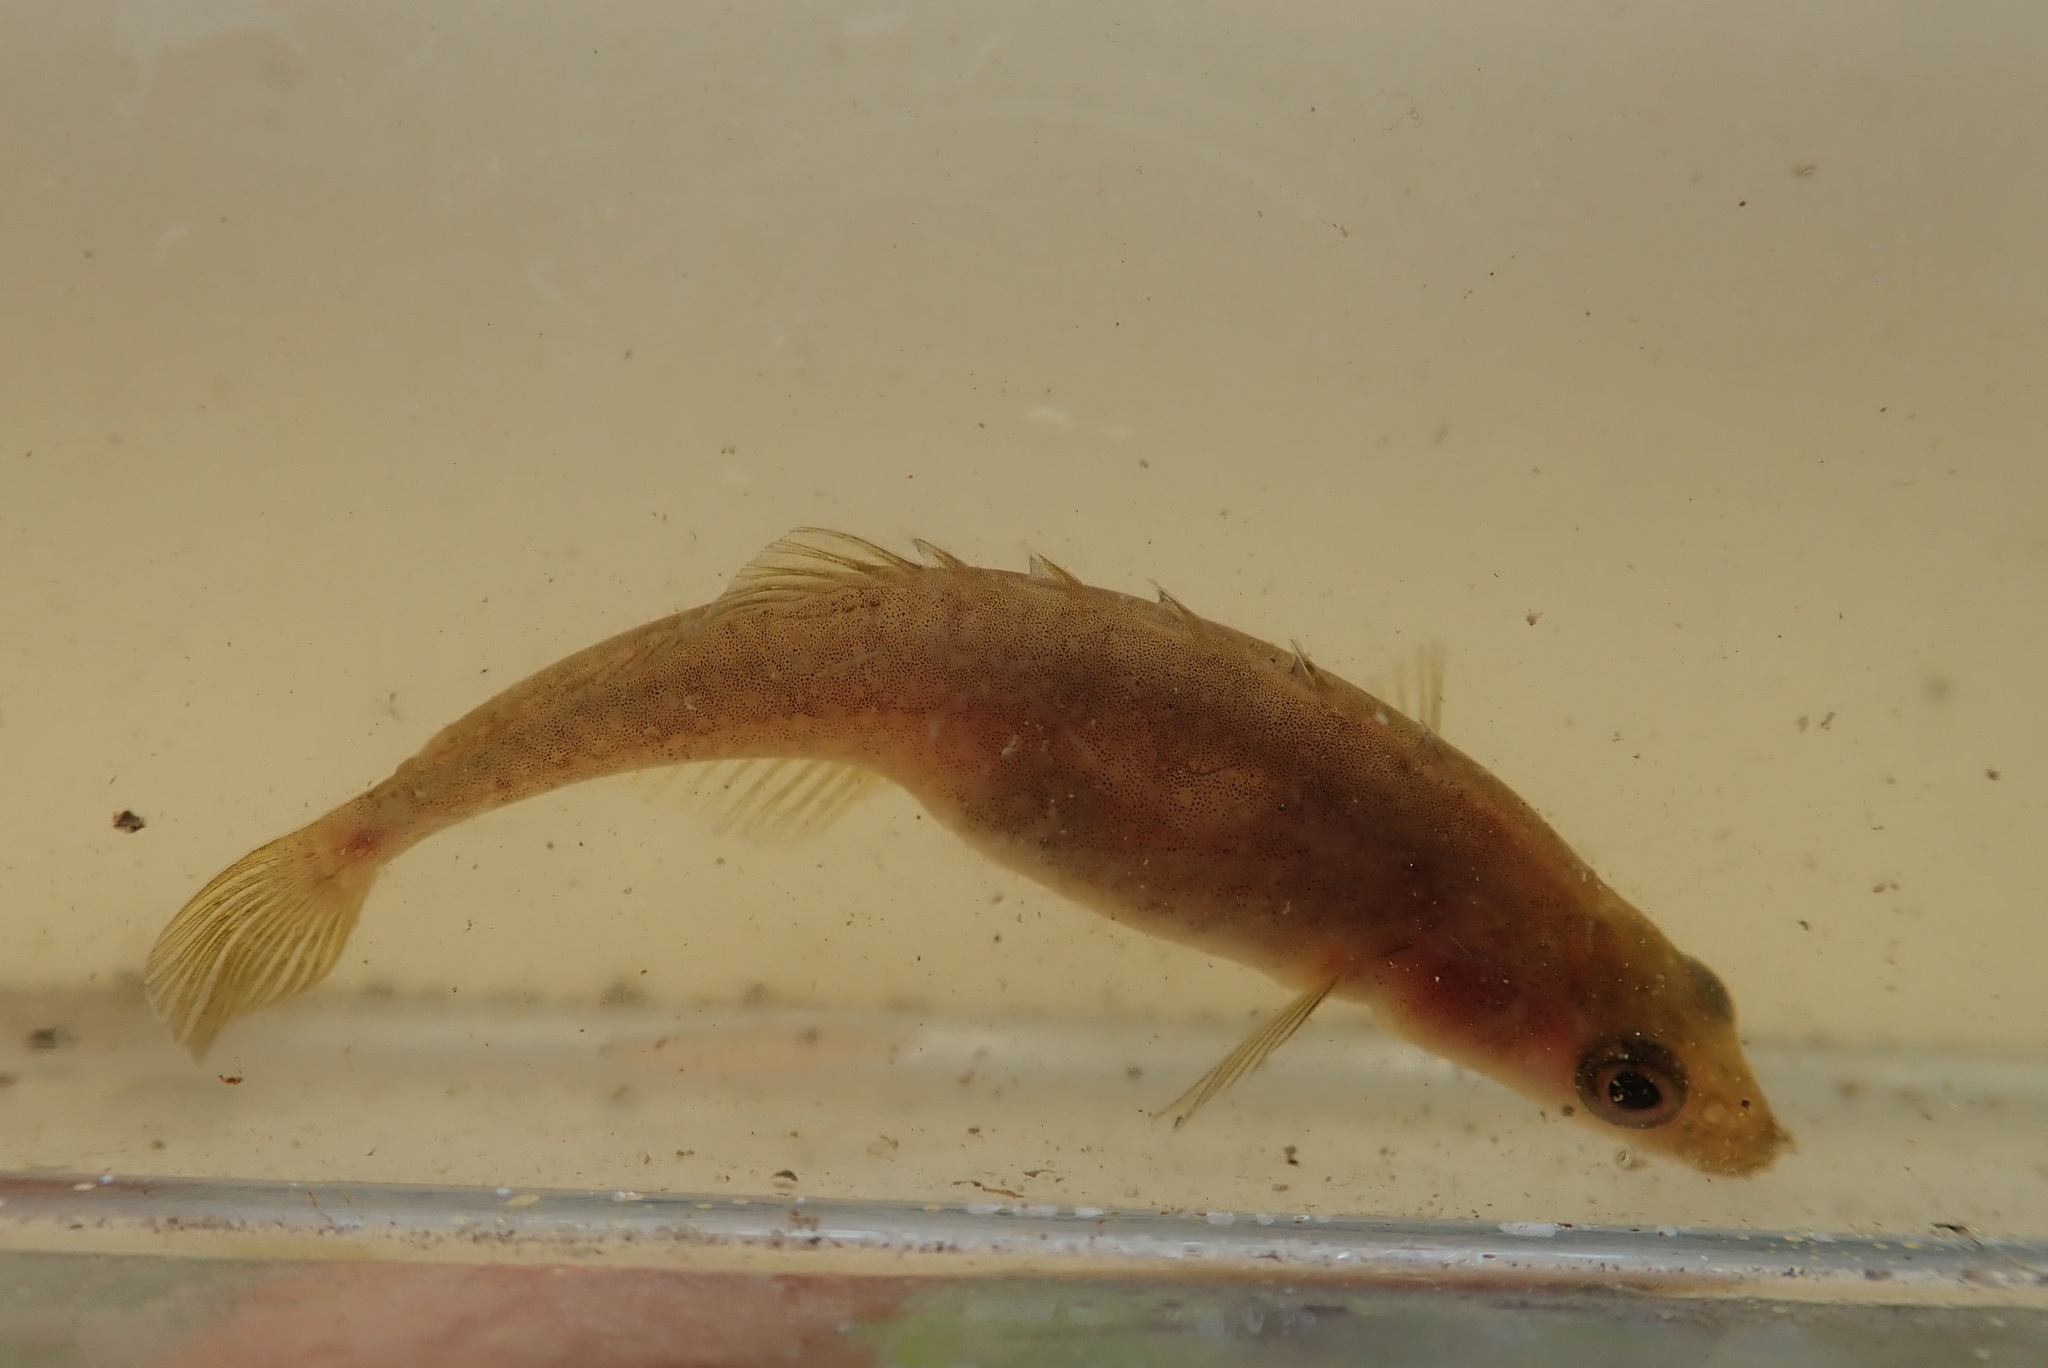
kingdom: Animalia
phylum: Chordata
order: Gasterosteiformes
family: Gasterosteidae
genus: Culaea
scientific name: Culaea inconstans
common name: Brook stickleback
